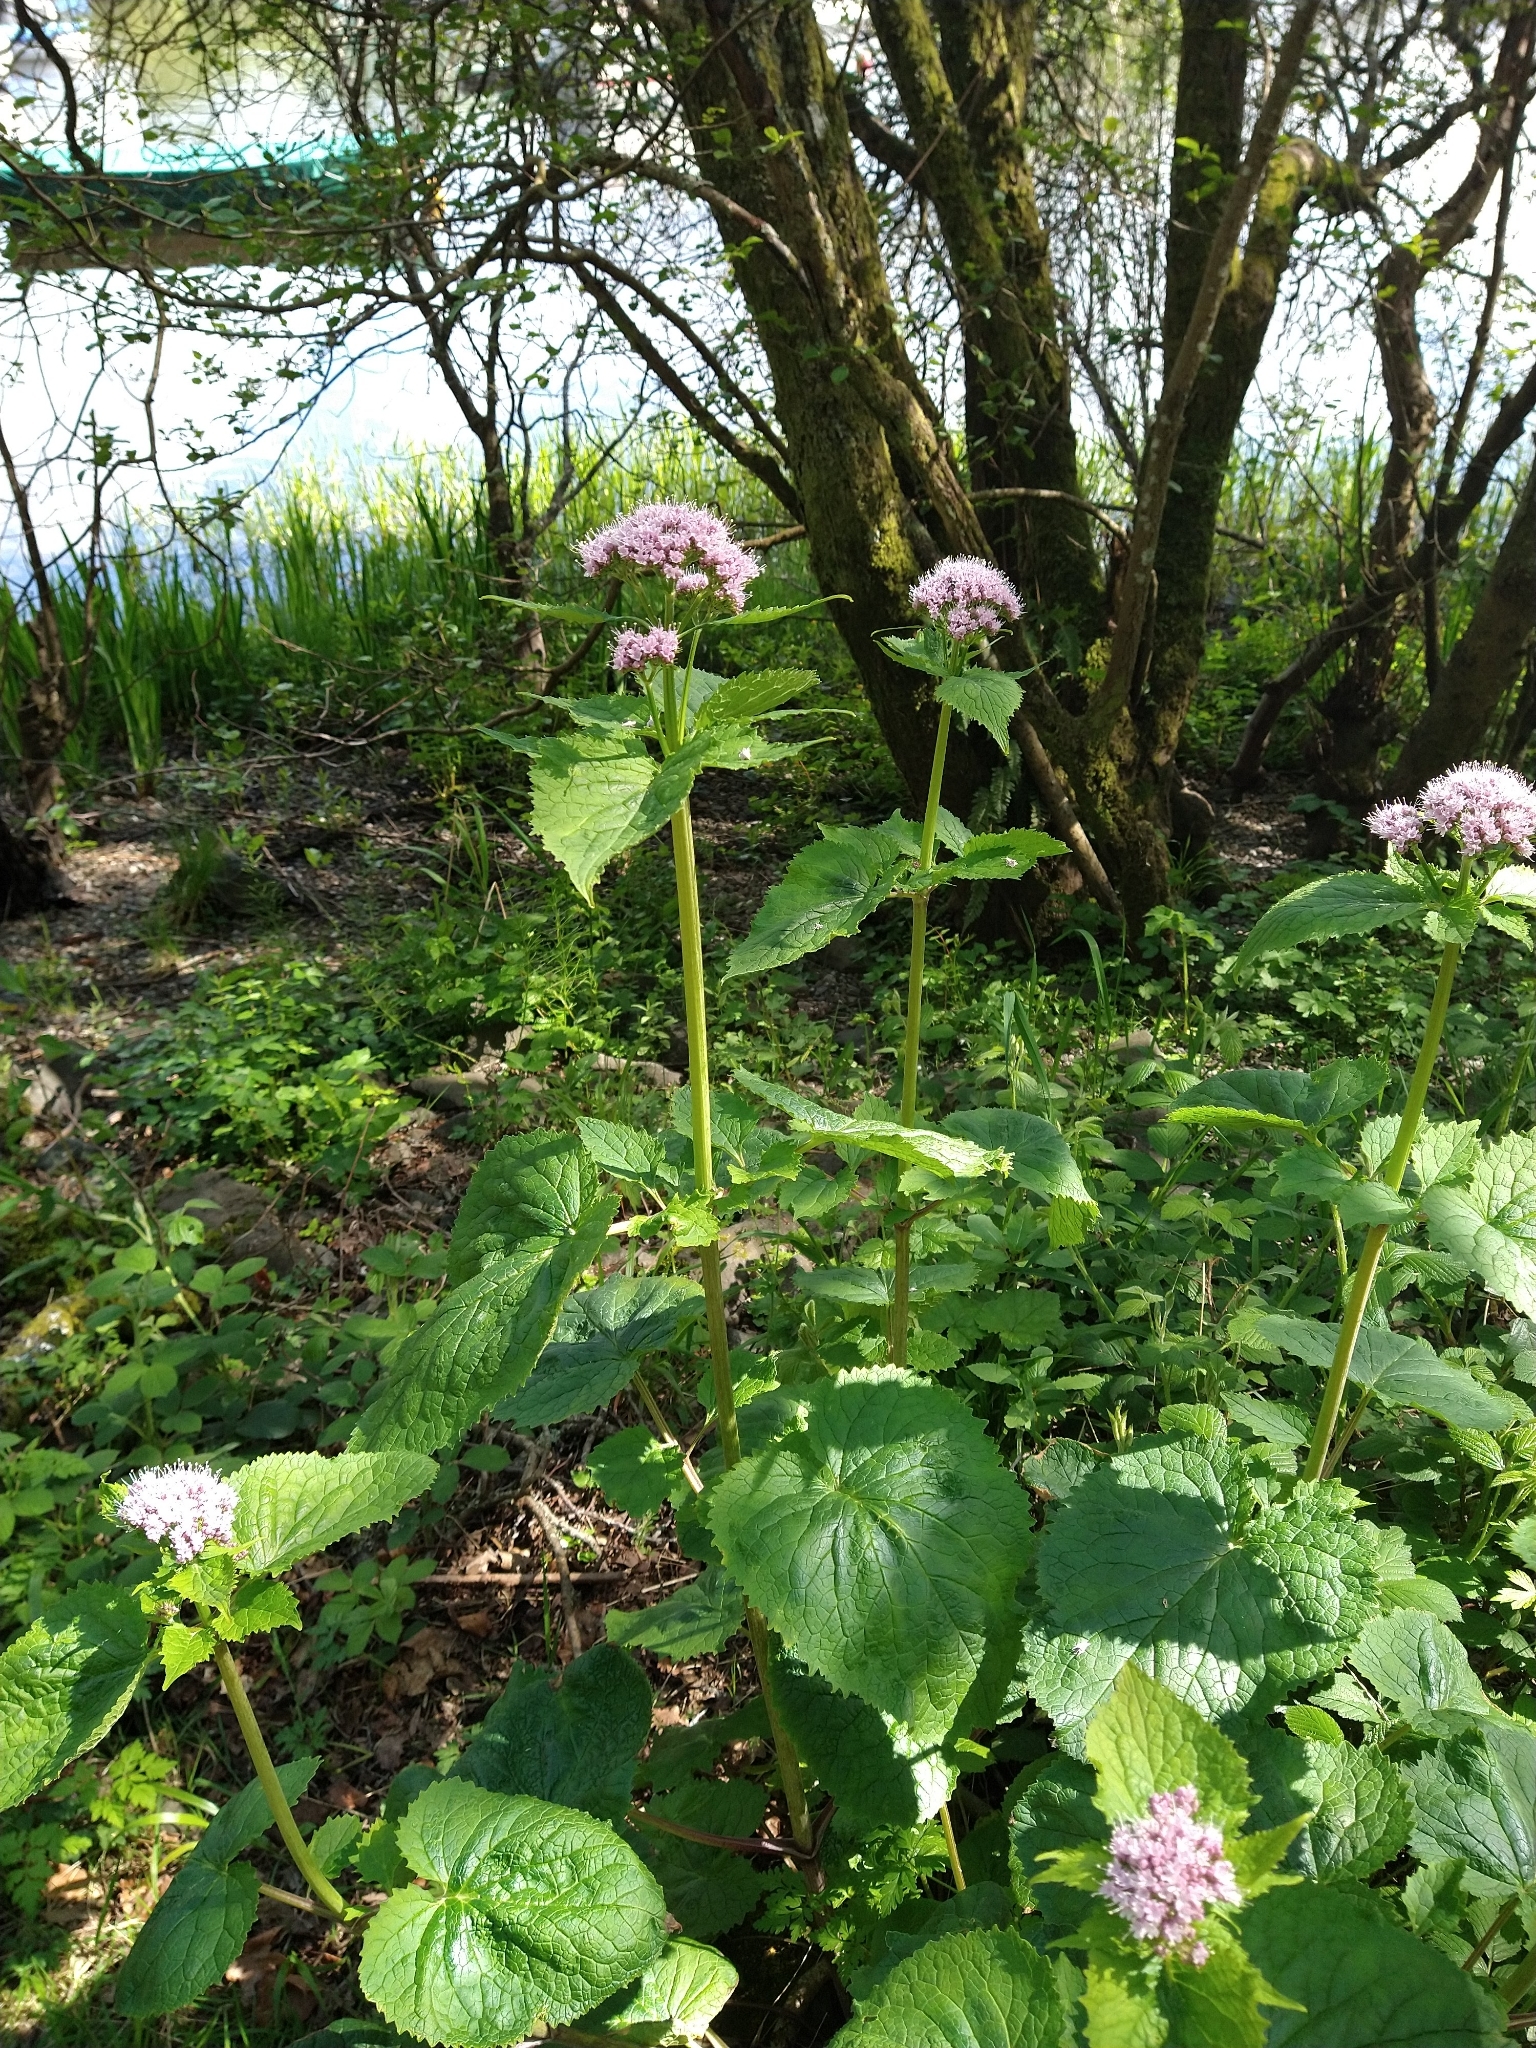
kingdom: Plantae
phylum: Tracheophyta
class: Magnoliopsida
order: Dipsacales
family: Caprifoliaceae
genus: Valeriana
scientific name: Valeriana pyrenaica
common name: Pyrenean valerian
